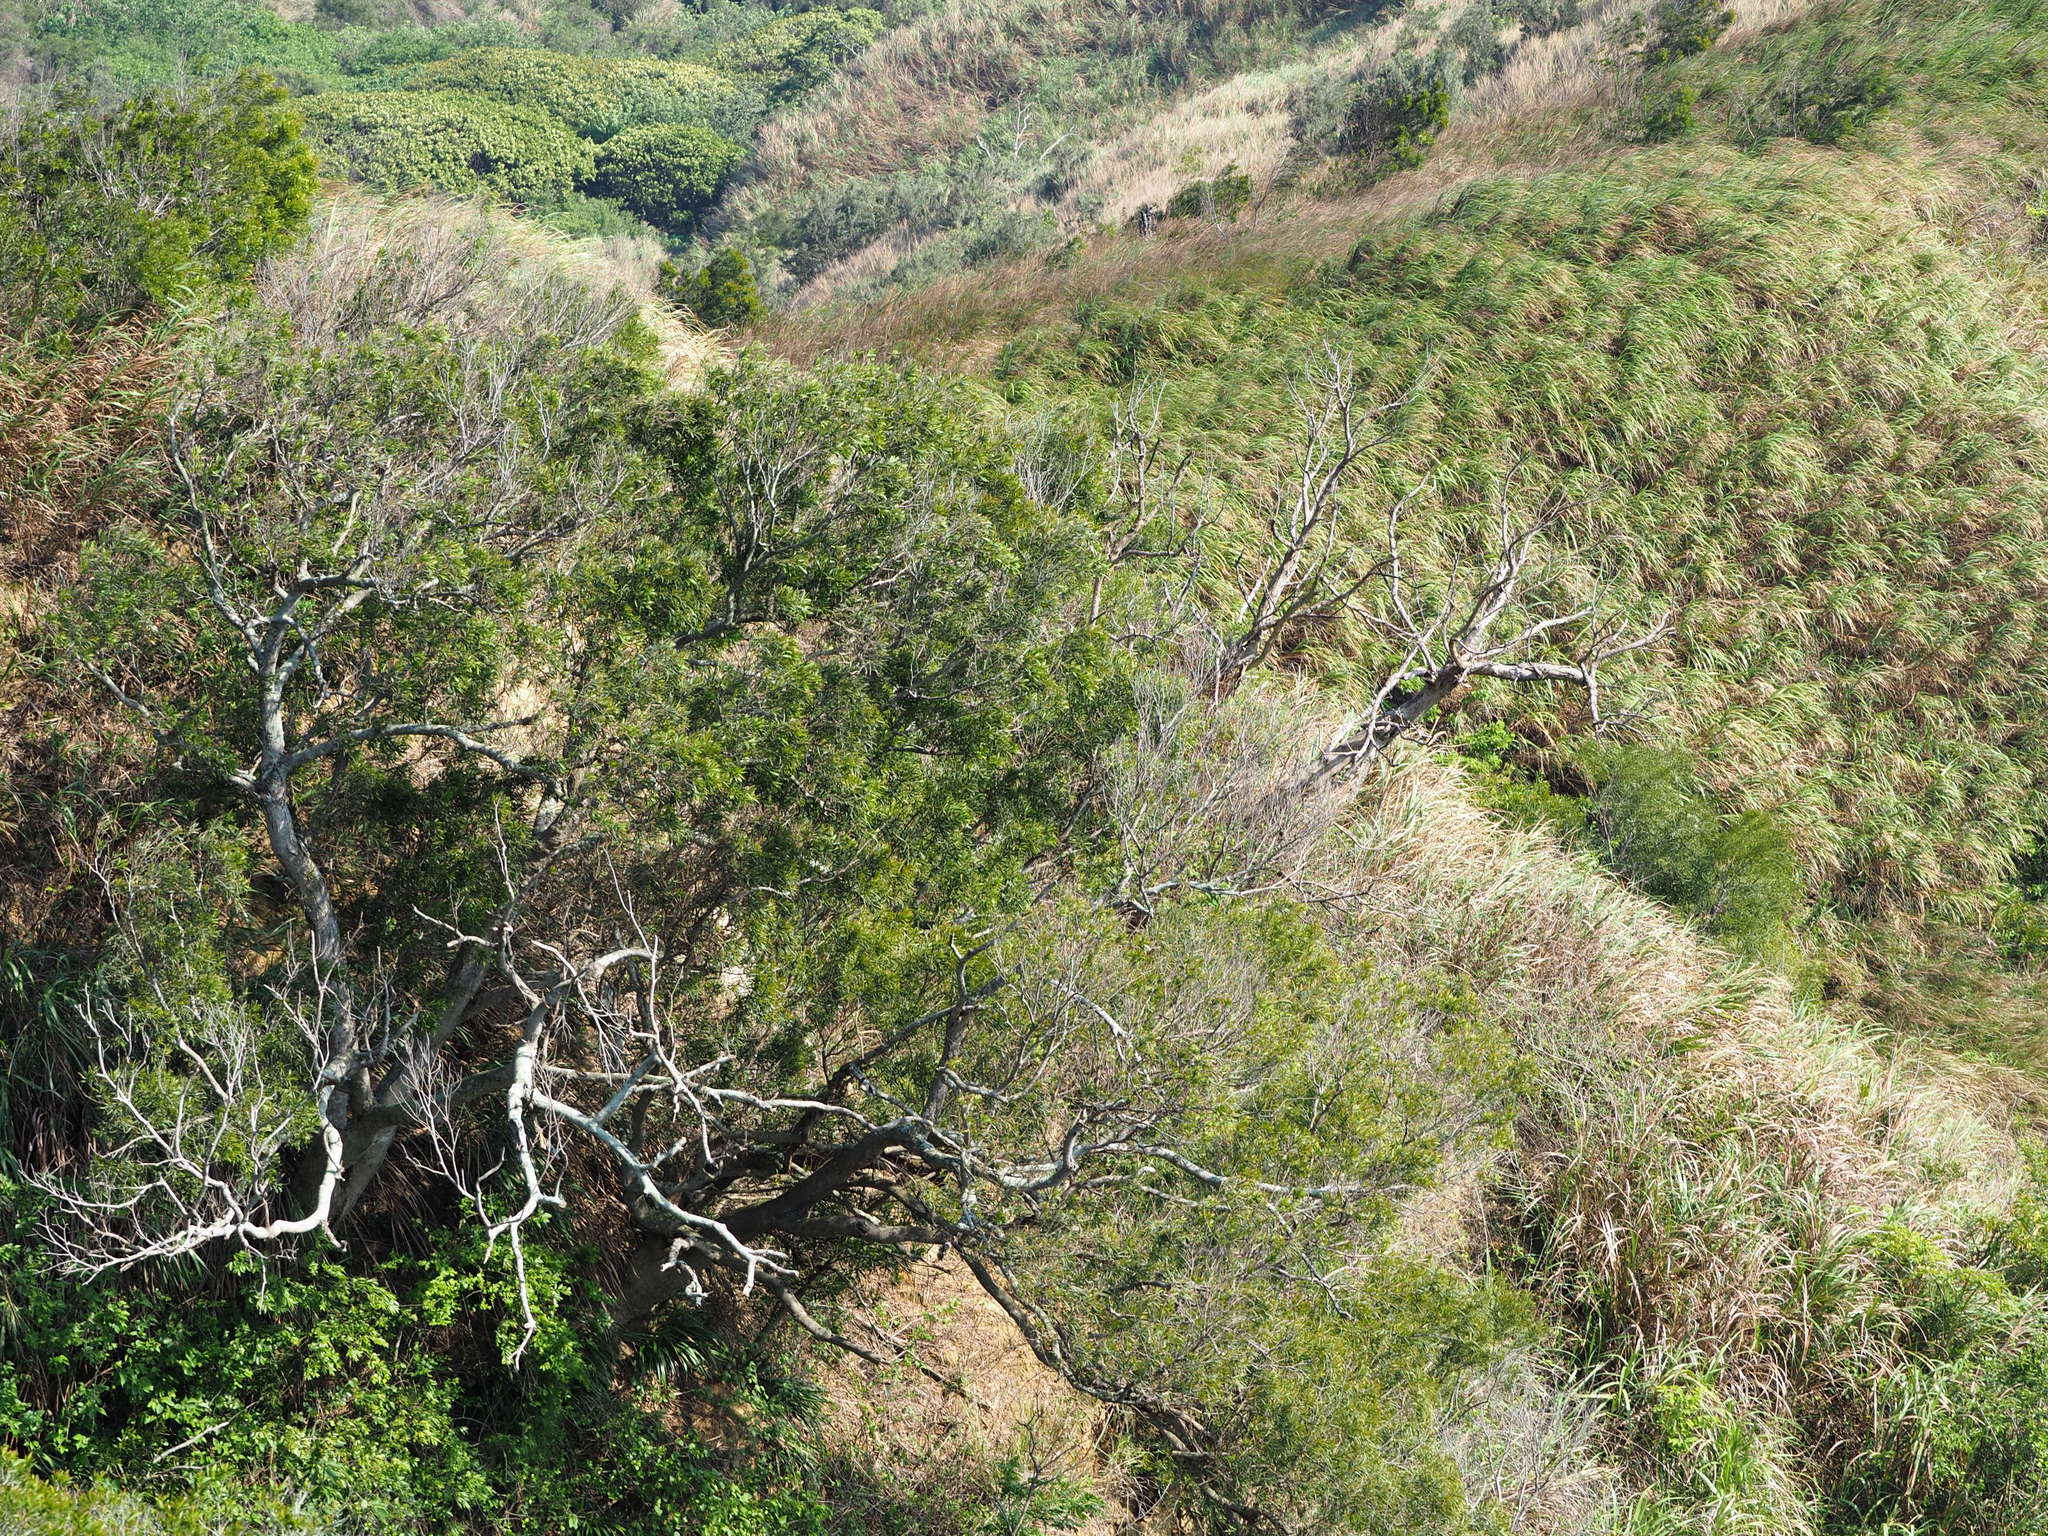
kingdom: Plantae
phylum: Tracheophyta
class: Magnoliopsida
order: Fabales
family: Fabaceae
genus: Acacia
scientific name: Acacia confusa
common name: Formosan koa
